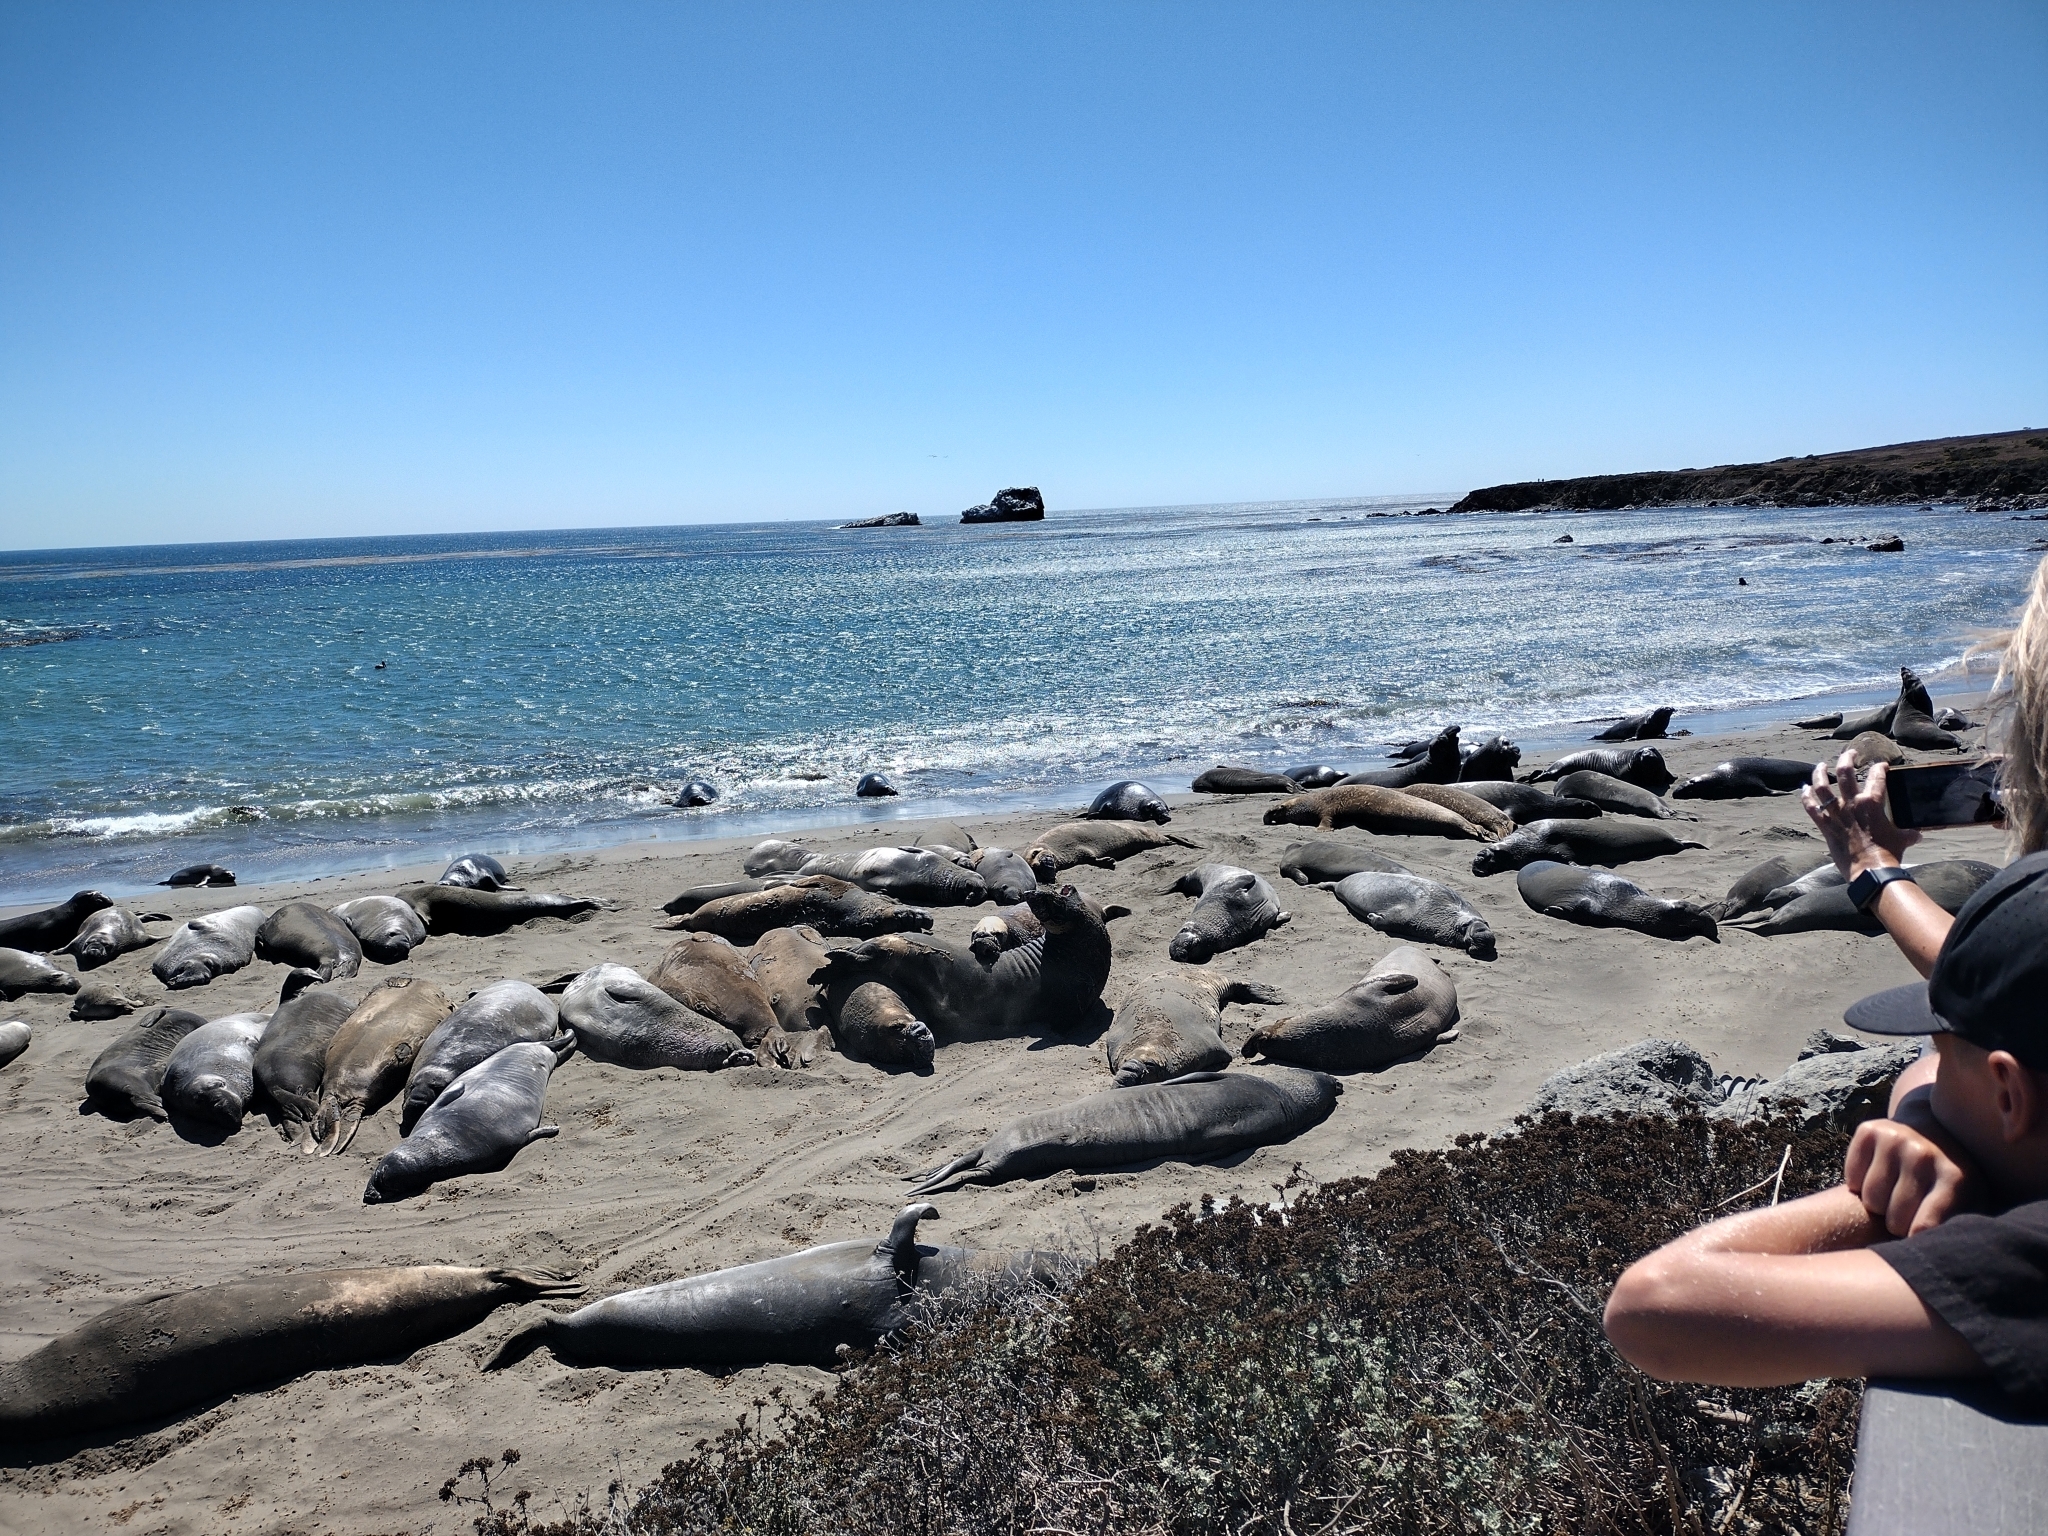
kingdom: Animalia
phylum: Chordata
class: Mammalia
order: Carnivora
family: Phocidae
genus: Mirounga
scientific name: Mirounga angustirostris
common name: Northern elephant seal
